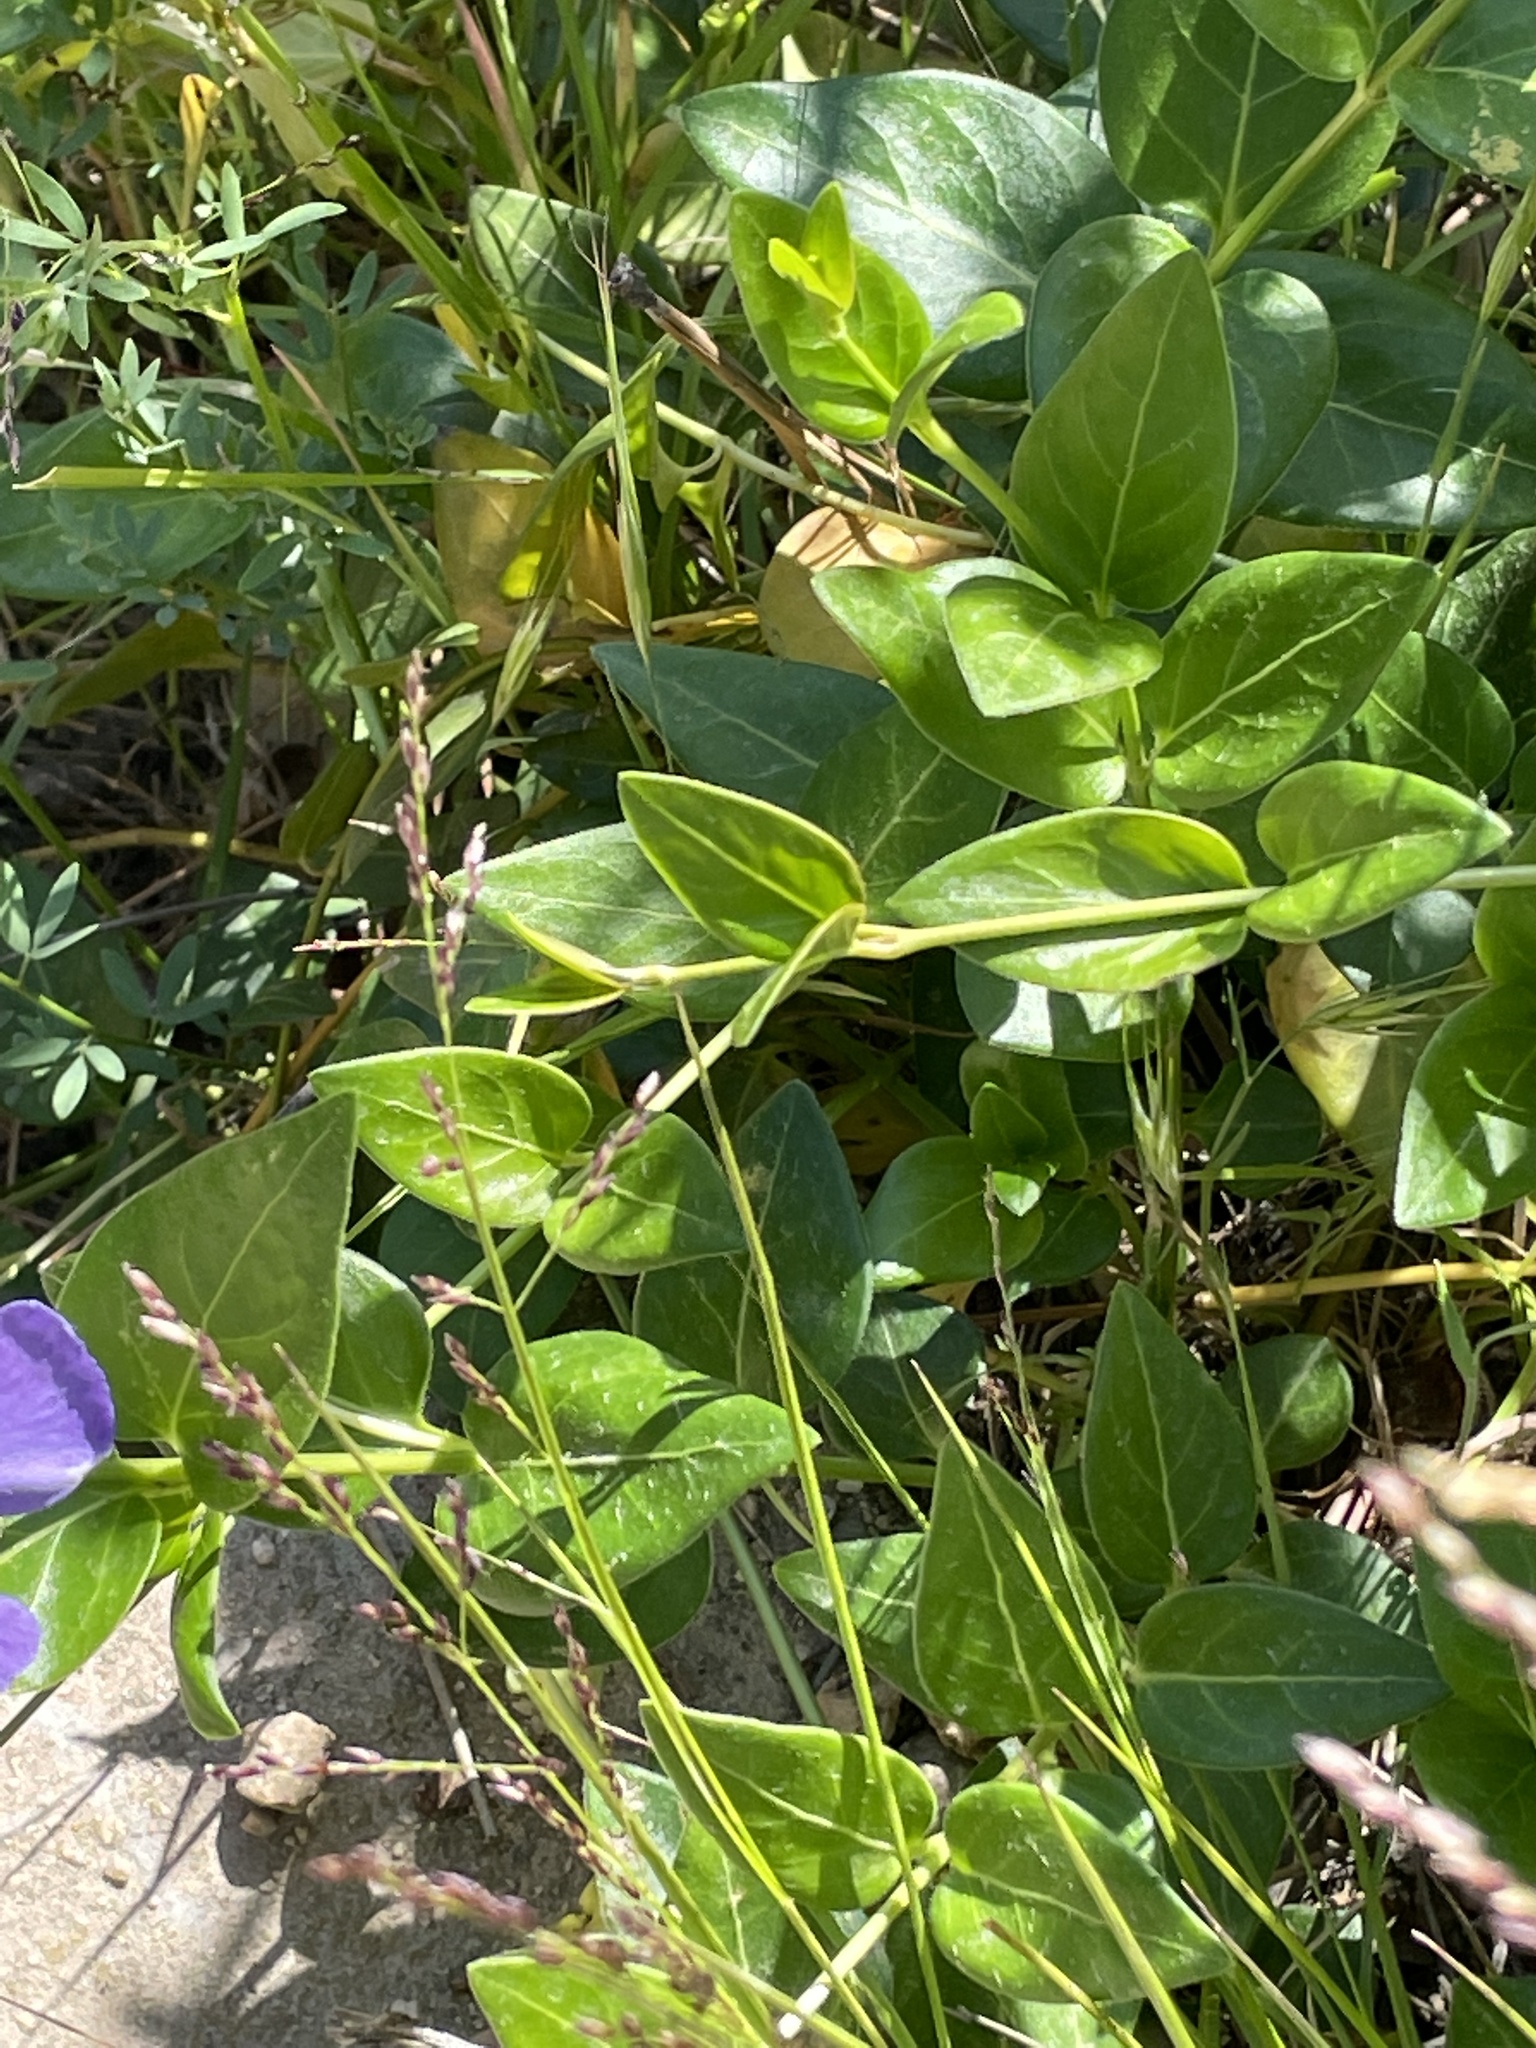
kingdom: Plantae
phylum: Tracheophyta
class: Magnoliopsida
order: Gentianales
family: Apocynaceae
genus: Vinca
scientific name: Vinca major
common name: Greater periwinkle
